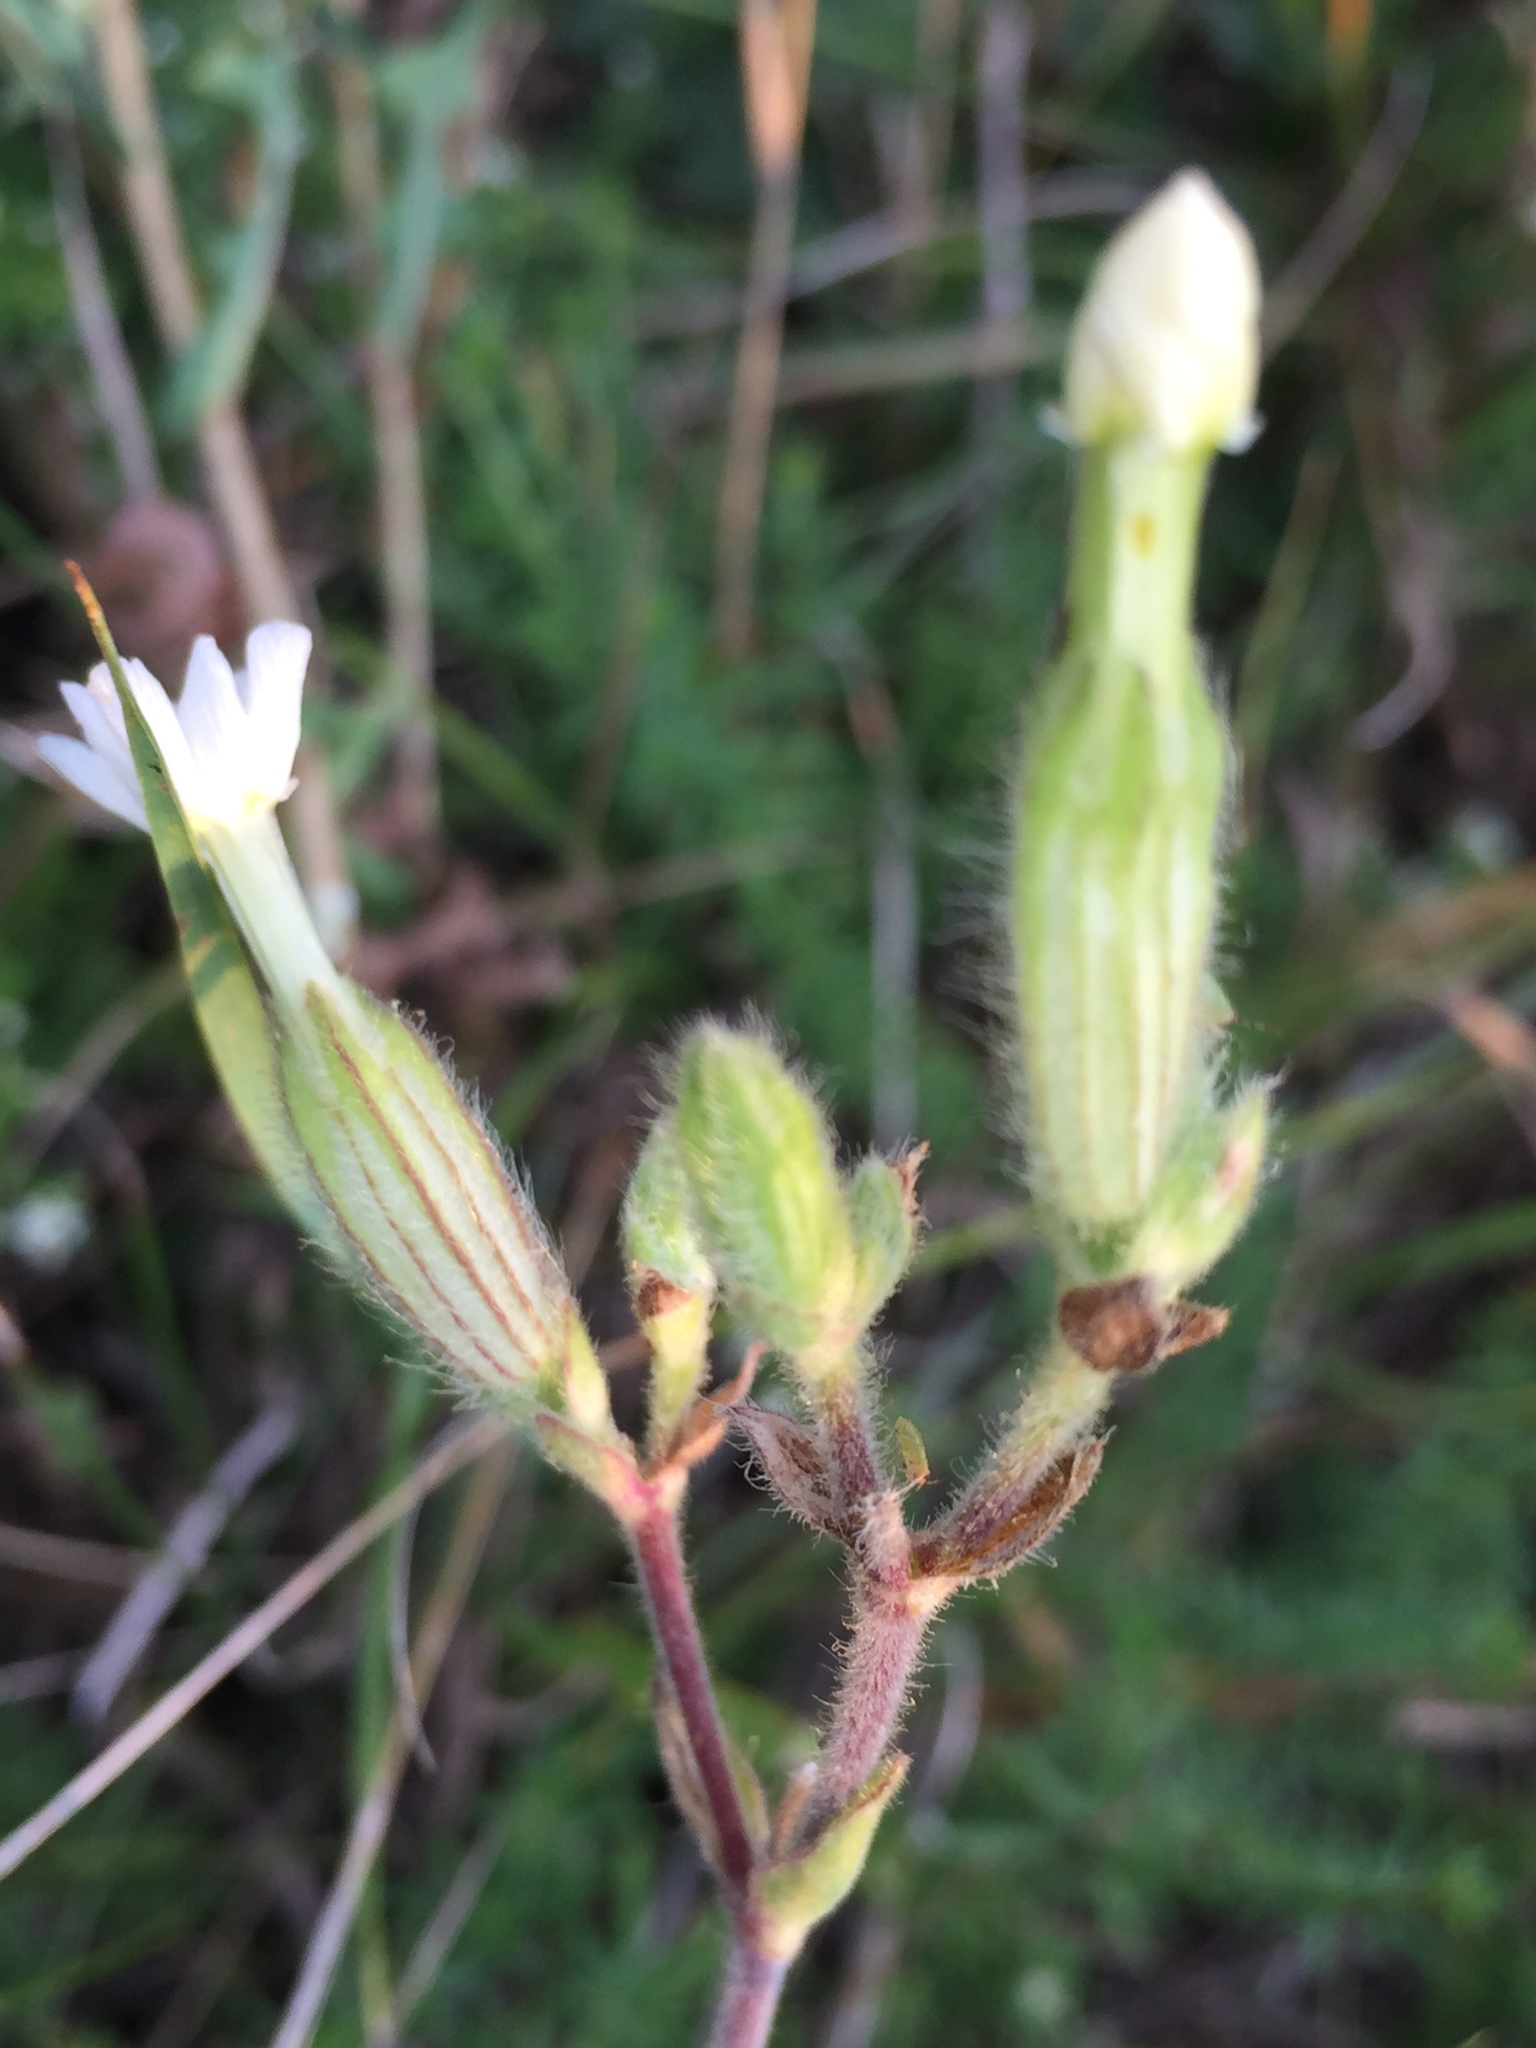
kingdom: Plantae
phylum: Tracheophyta
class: Magnoliopsida
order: Caryophyllales
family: Caryophyllaceae
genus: Silene
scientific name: Silene latifolia
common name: White campion
